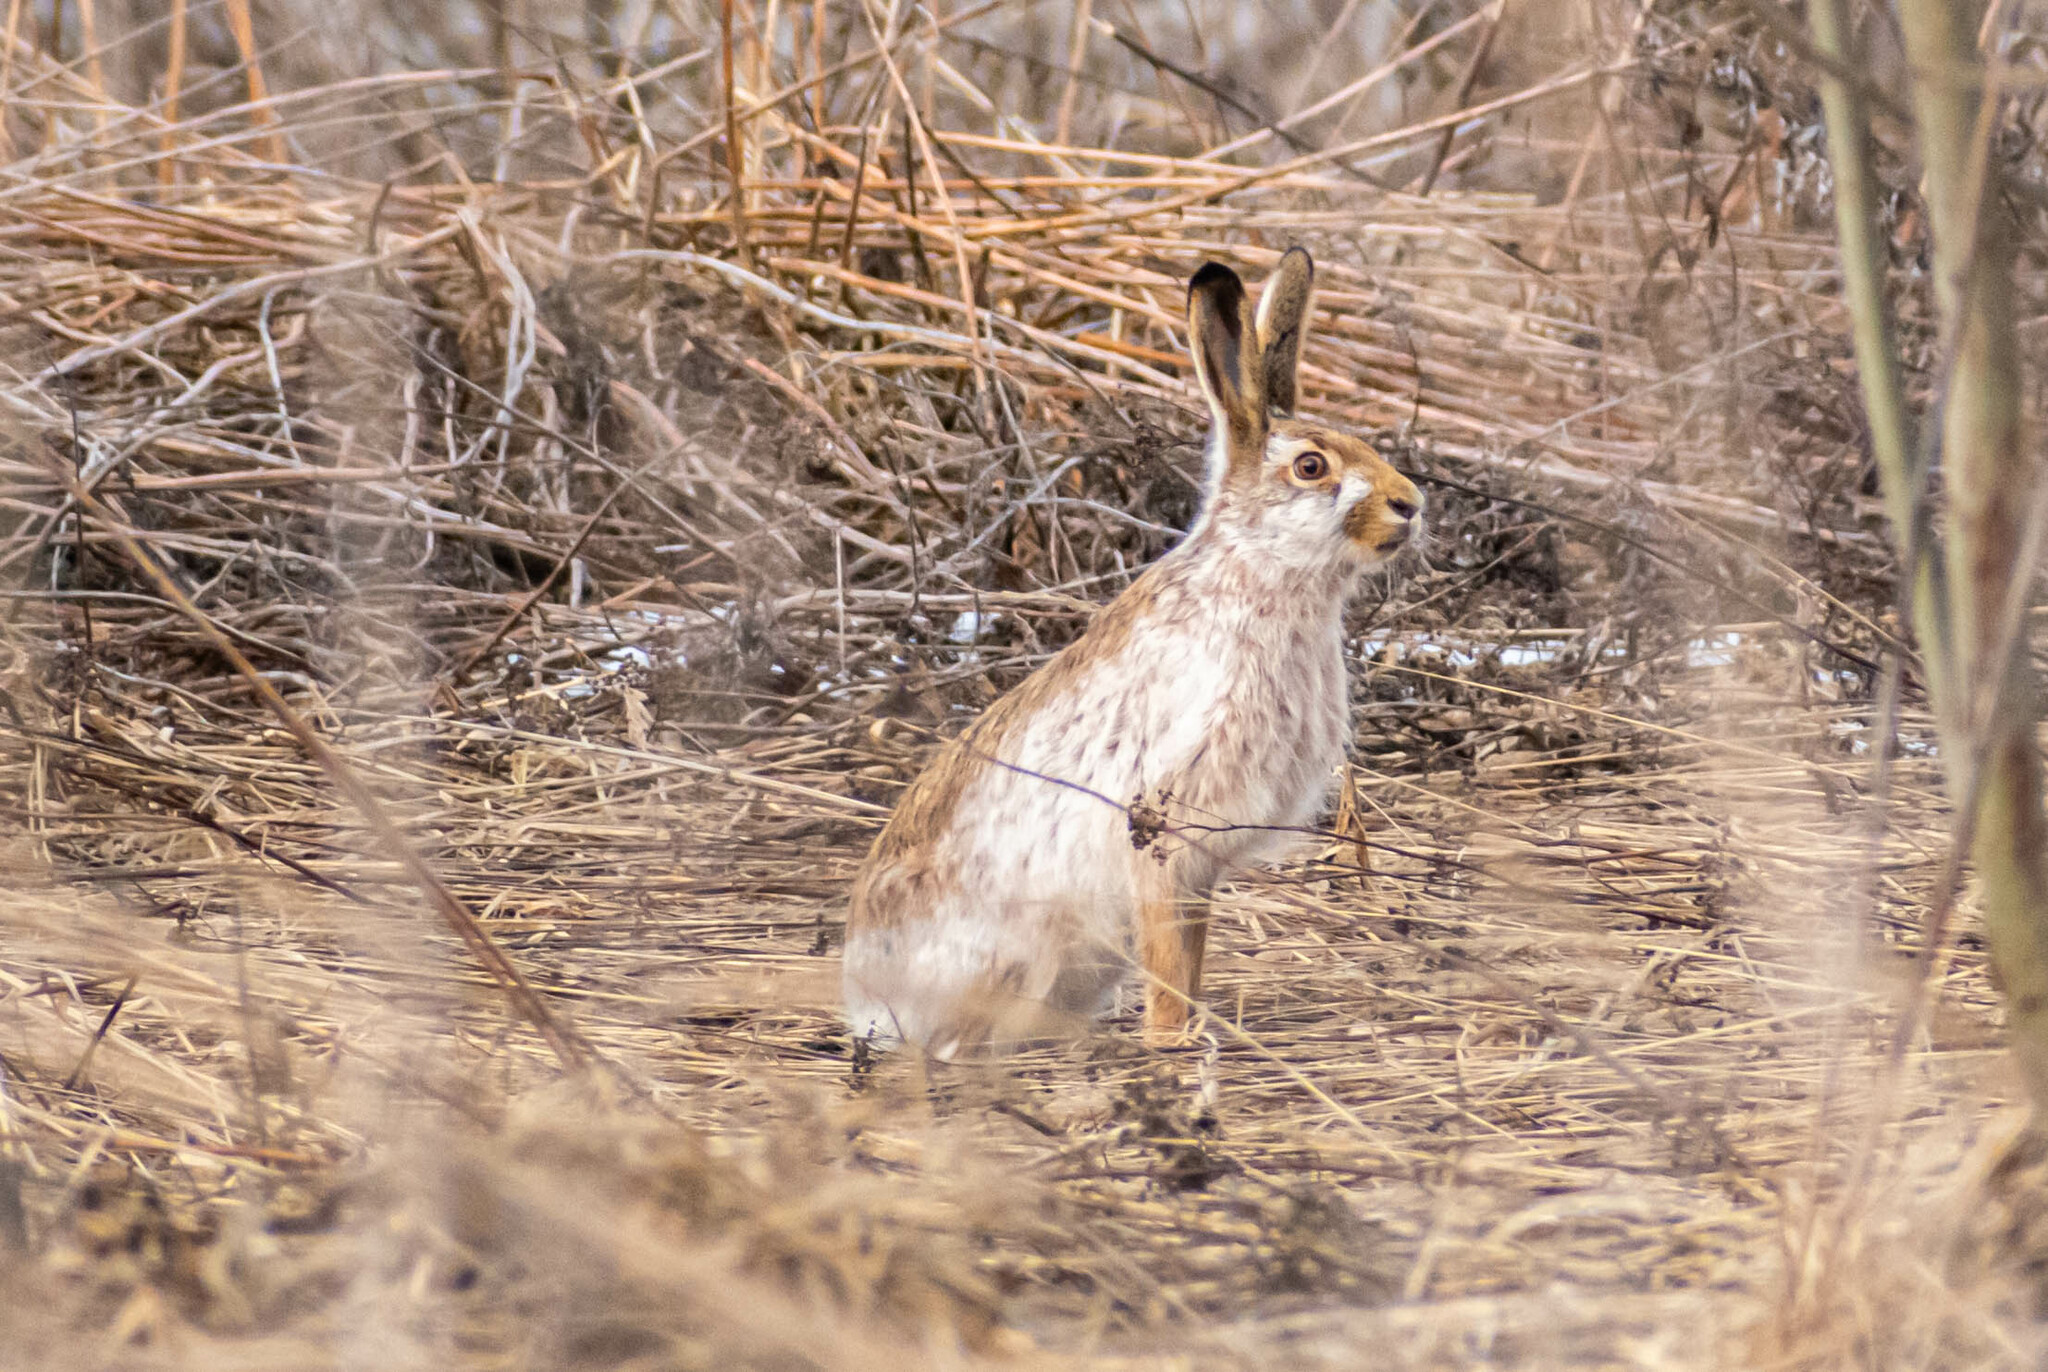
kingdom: Animalia
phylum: Chordata
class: Mammalia
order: Lagomorpha
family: Leporidae
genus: Lepus
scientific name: Lepus europaeus
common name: European hare
